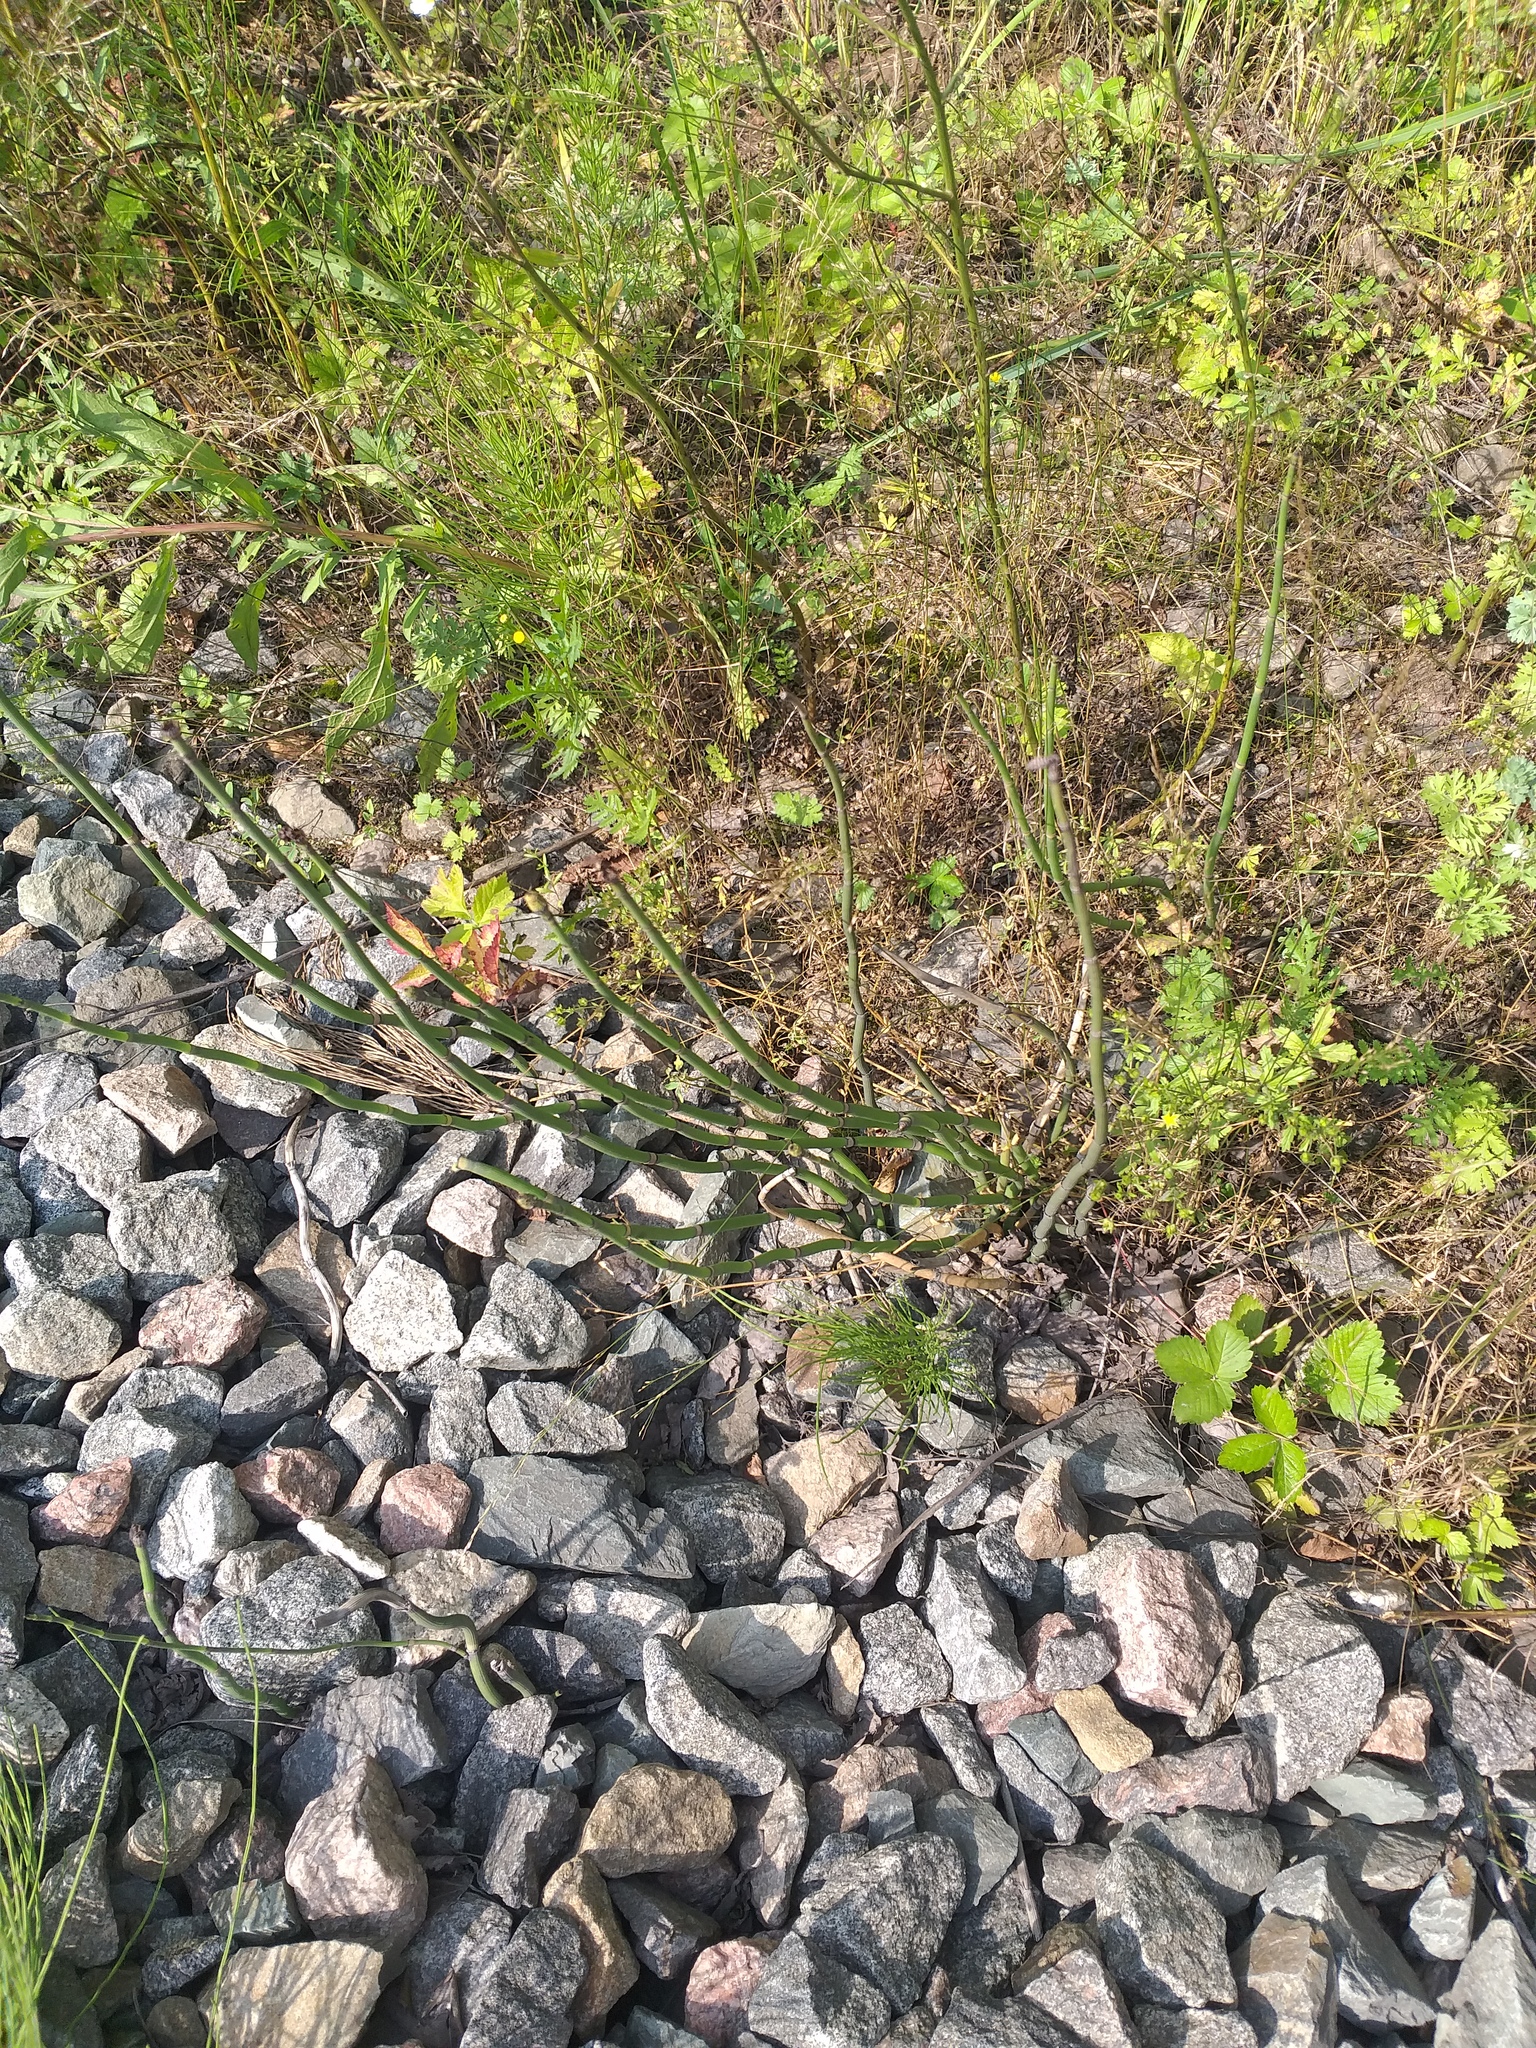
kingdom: Plantae
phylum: Tracheophyta
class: Polypodiopsida
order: Equisetales
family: Equisetaceae
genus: Equisetum
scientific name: Equisetum hyemale
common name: Rough horsetail
